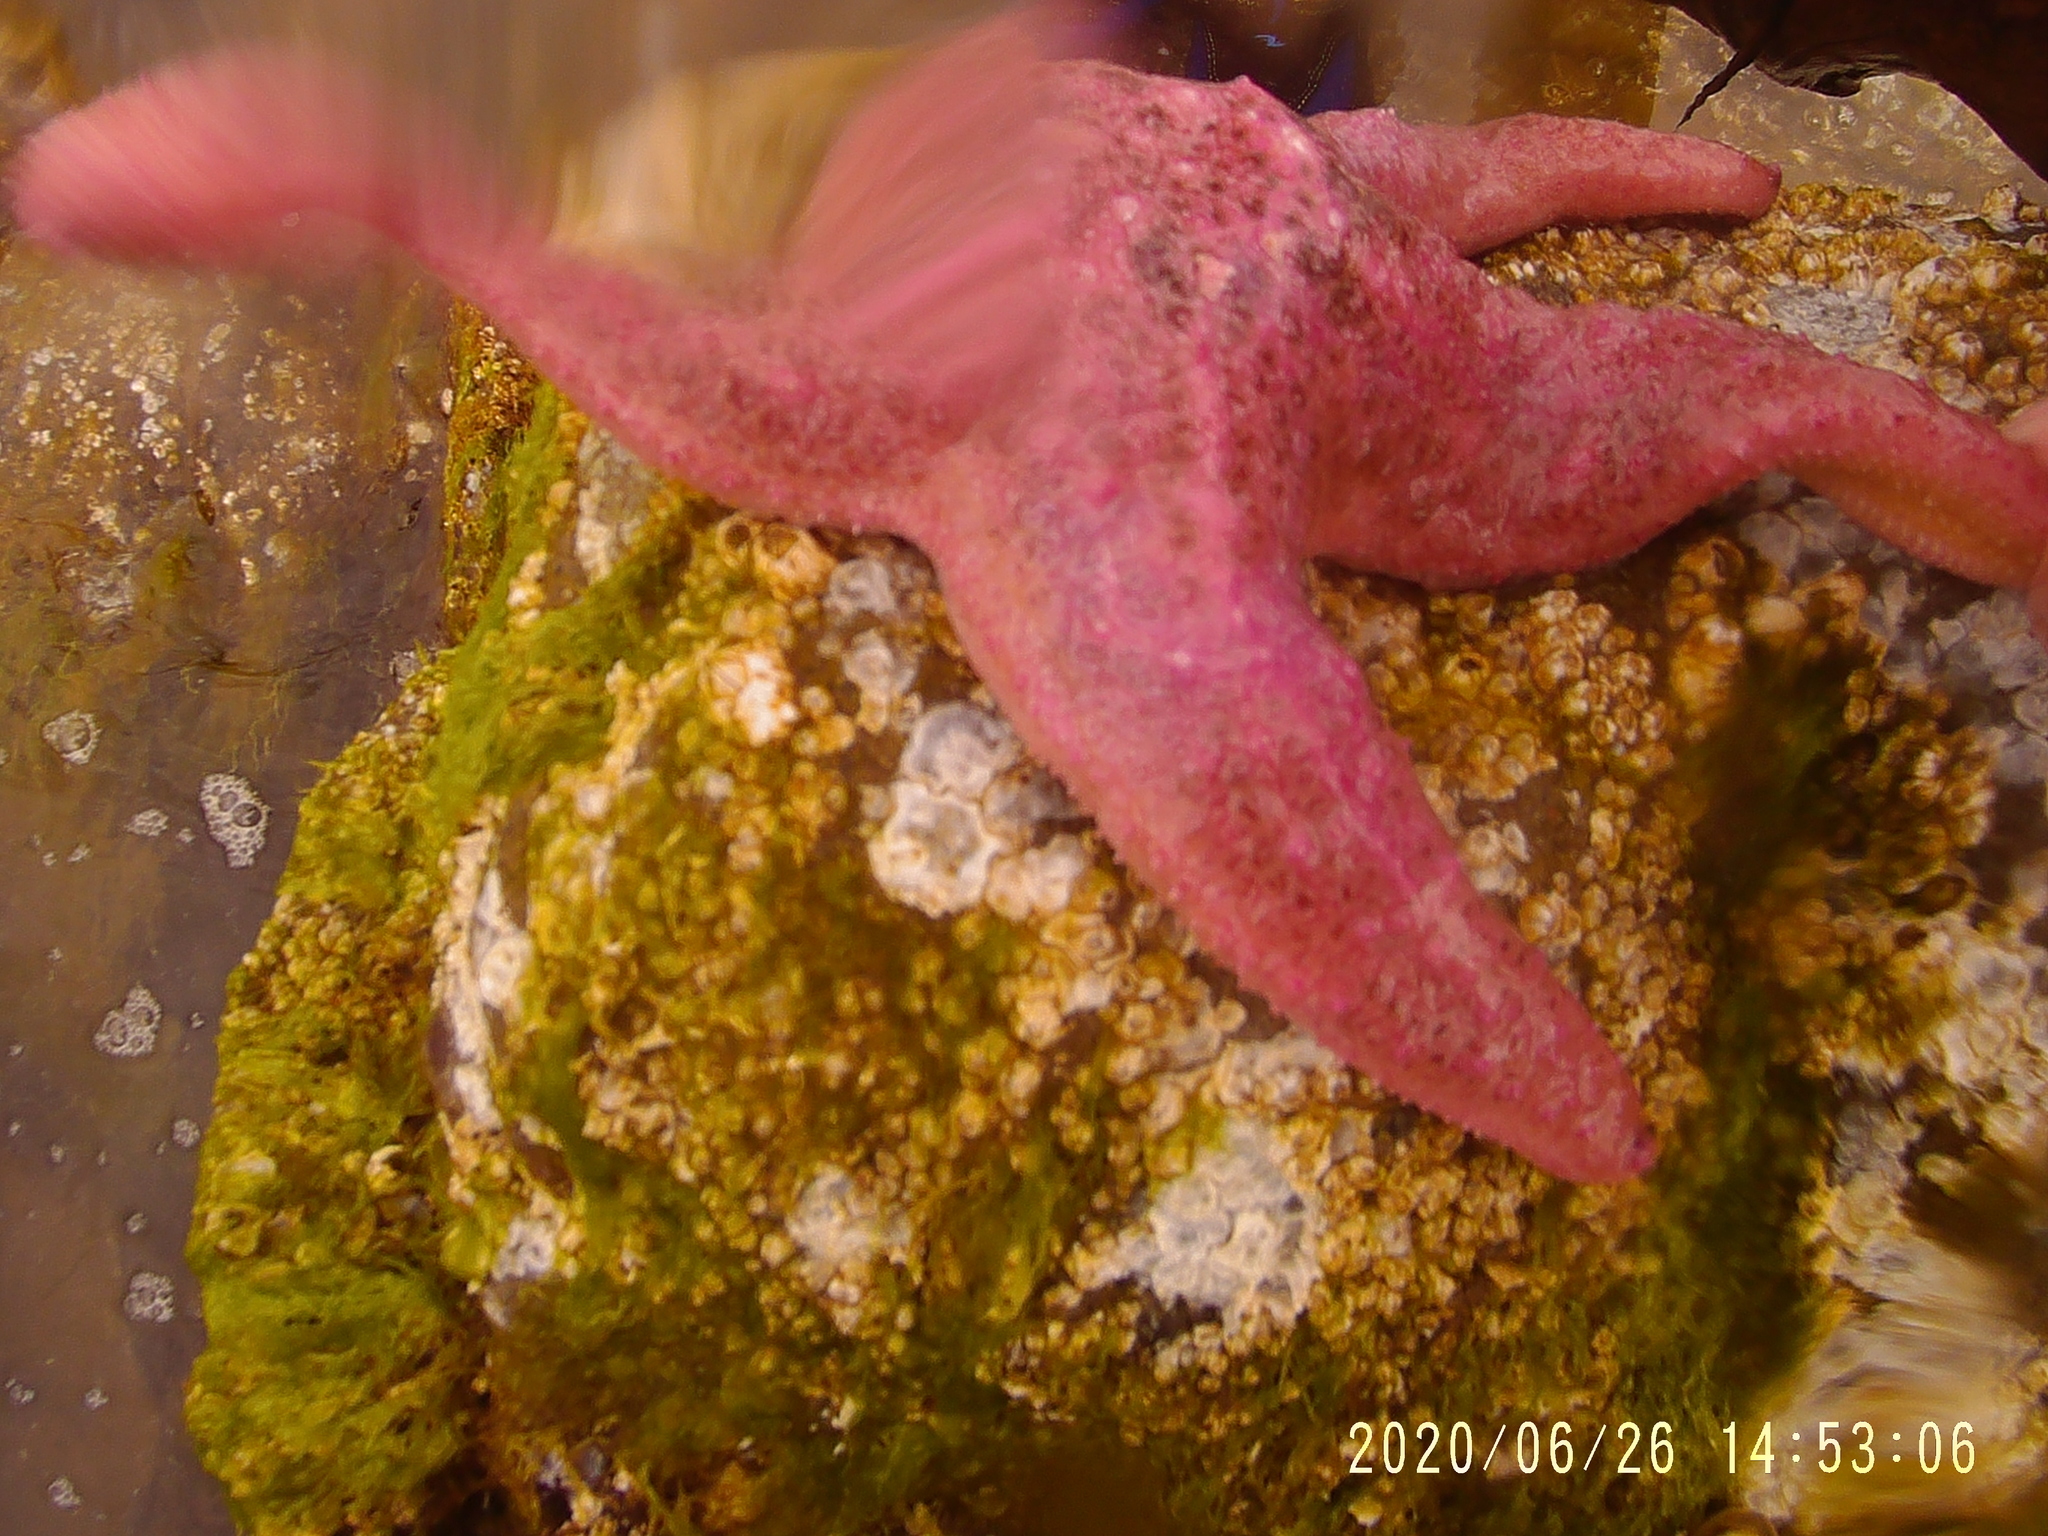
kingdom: Animalia
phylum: Echinodermata
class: Asteroidea
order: Forcipulatida
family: Asteriidae
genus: Pisaster
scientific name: Pisaster brevispinus
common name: Pink stars
